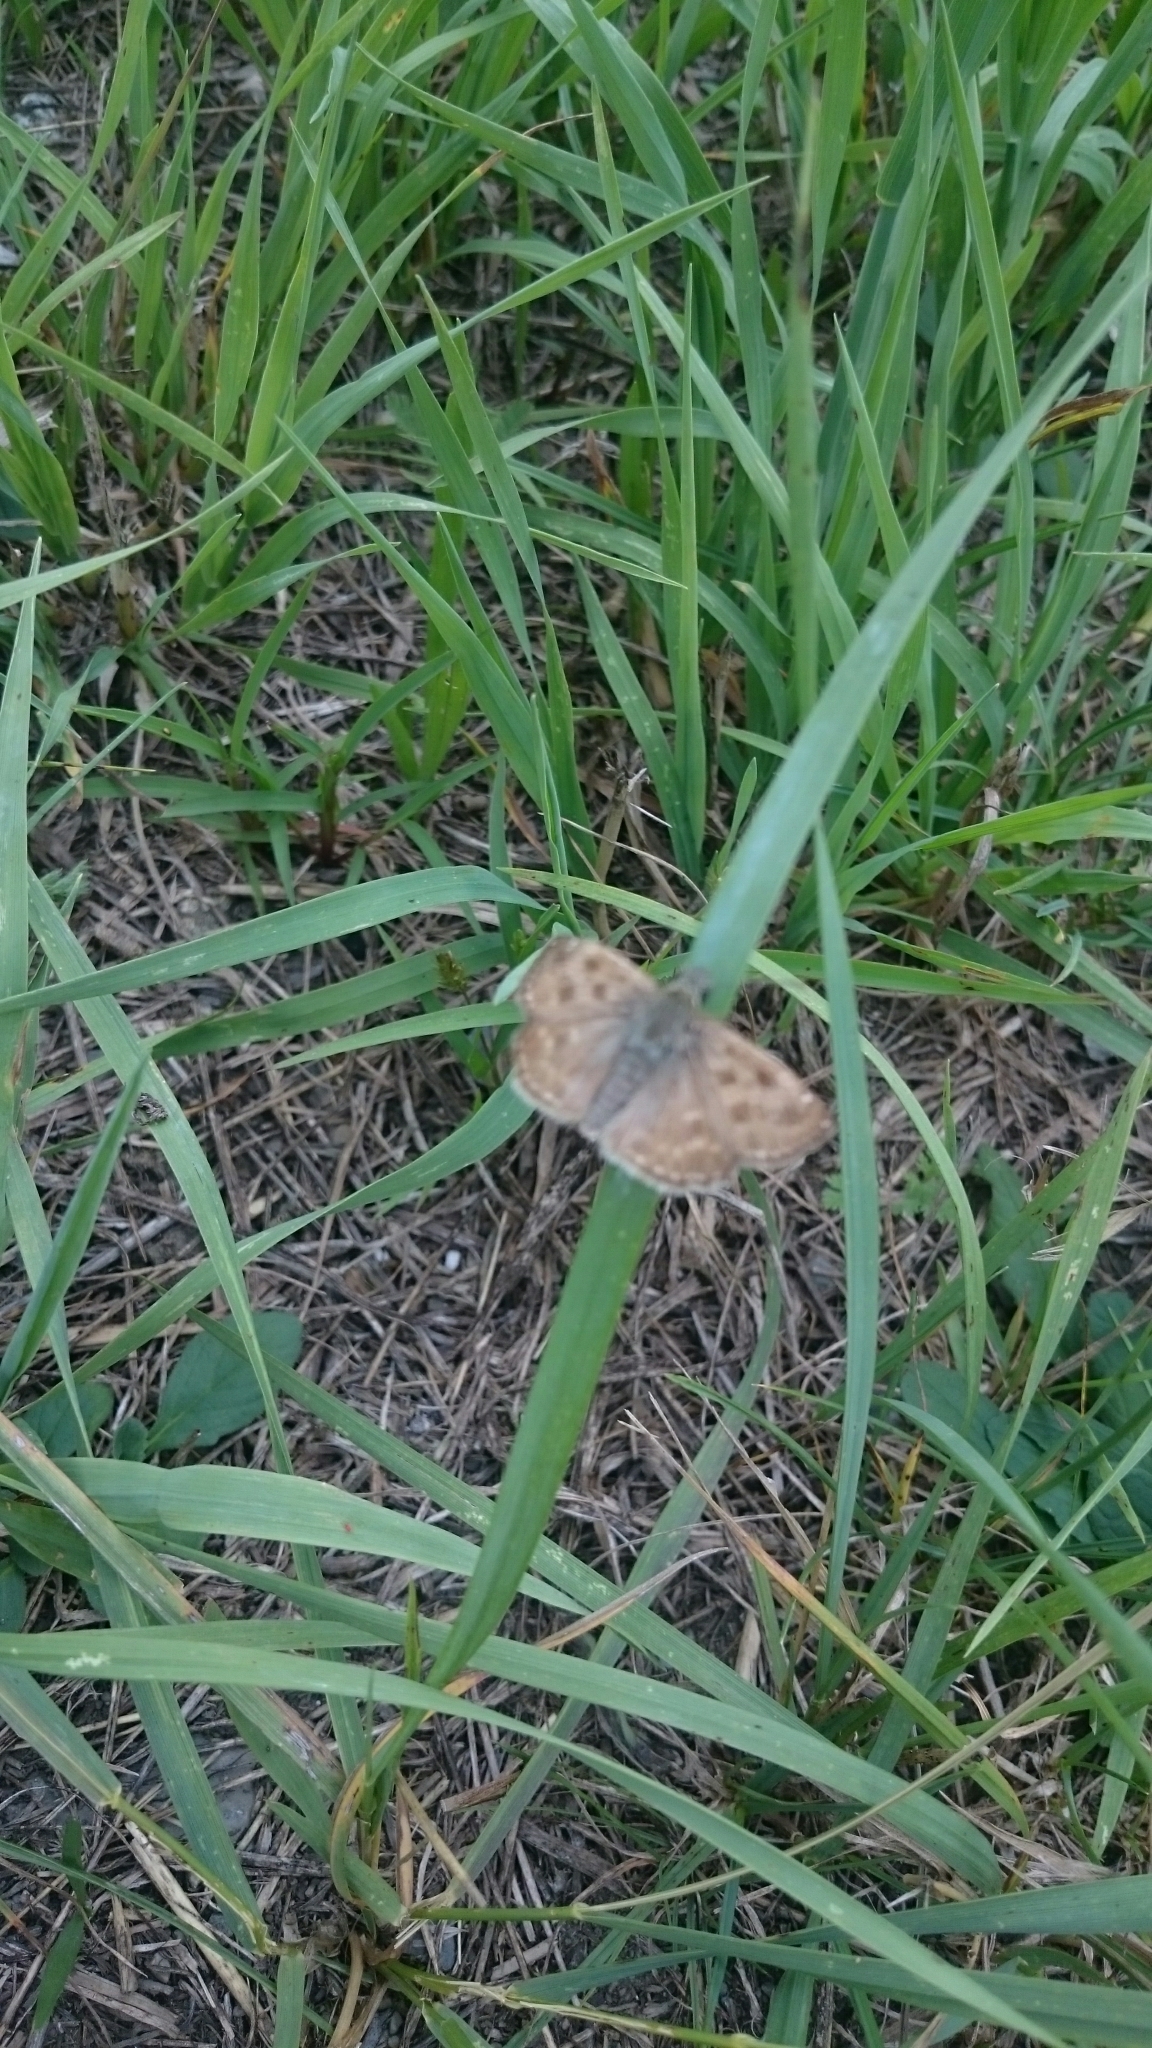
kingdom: Animalia
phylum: Arthropoda
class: Insecta
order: Lepidoptera
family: Hesperiidae
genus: Erynnis
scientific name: Erynnis tages
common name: Dingy skipper
